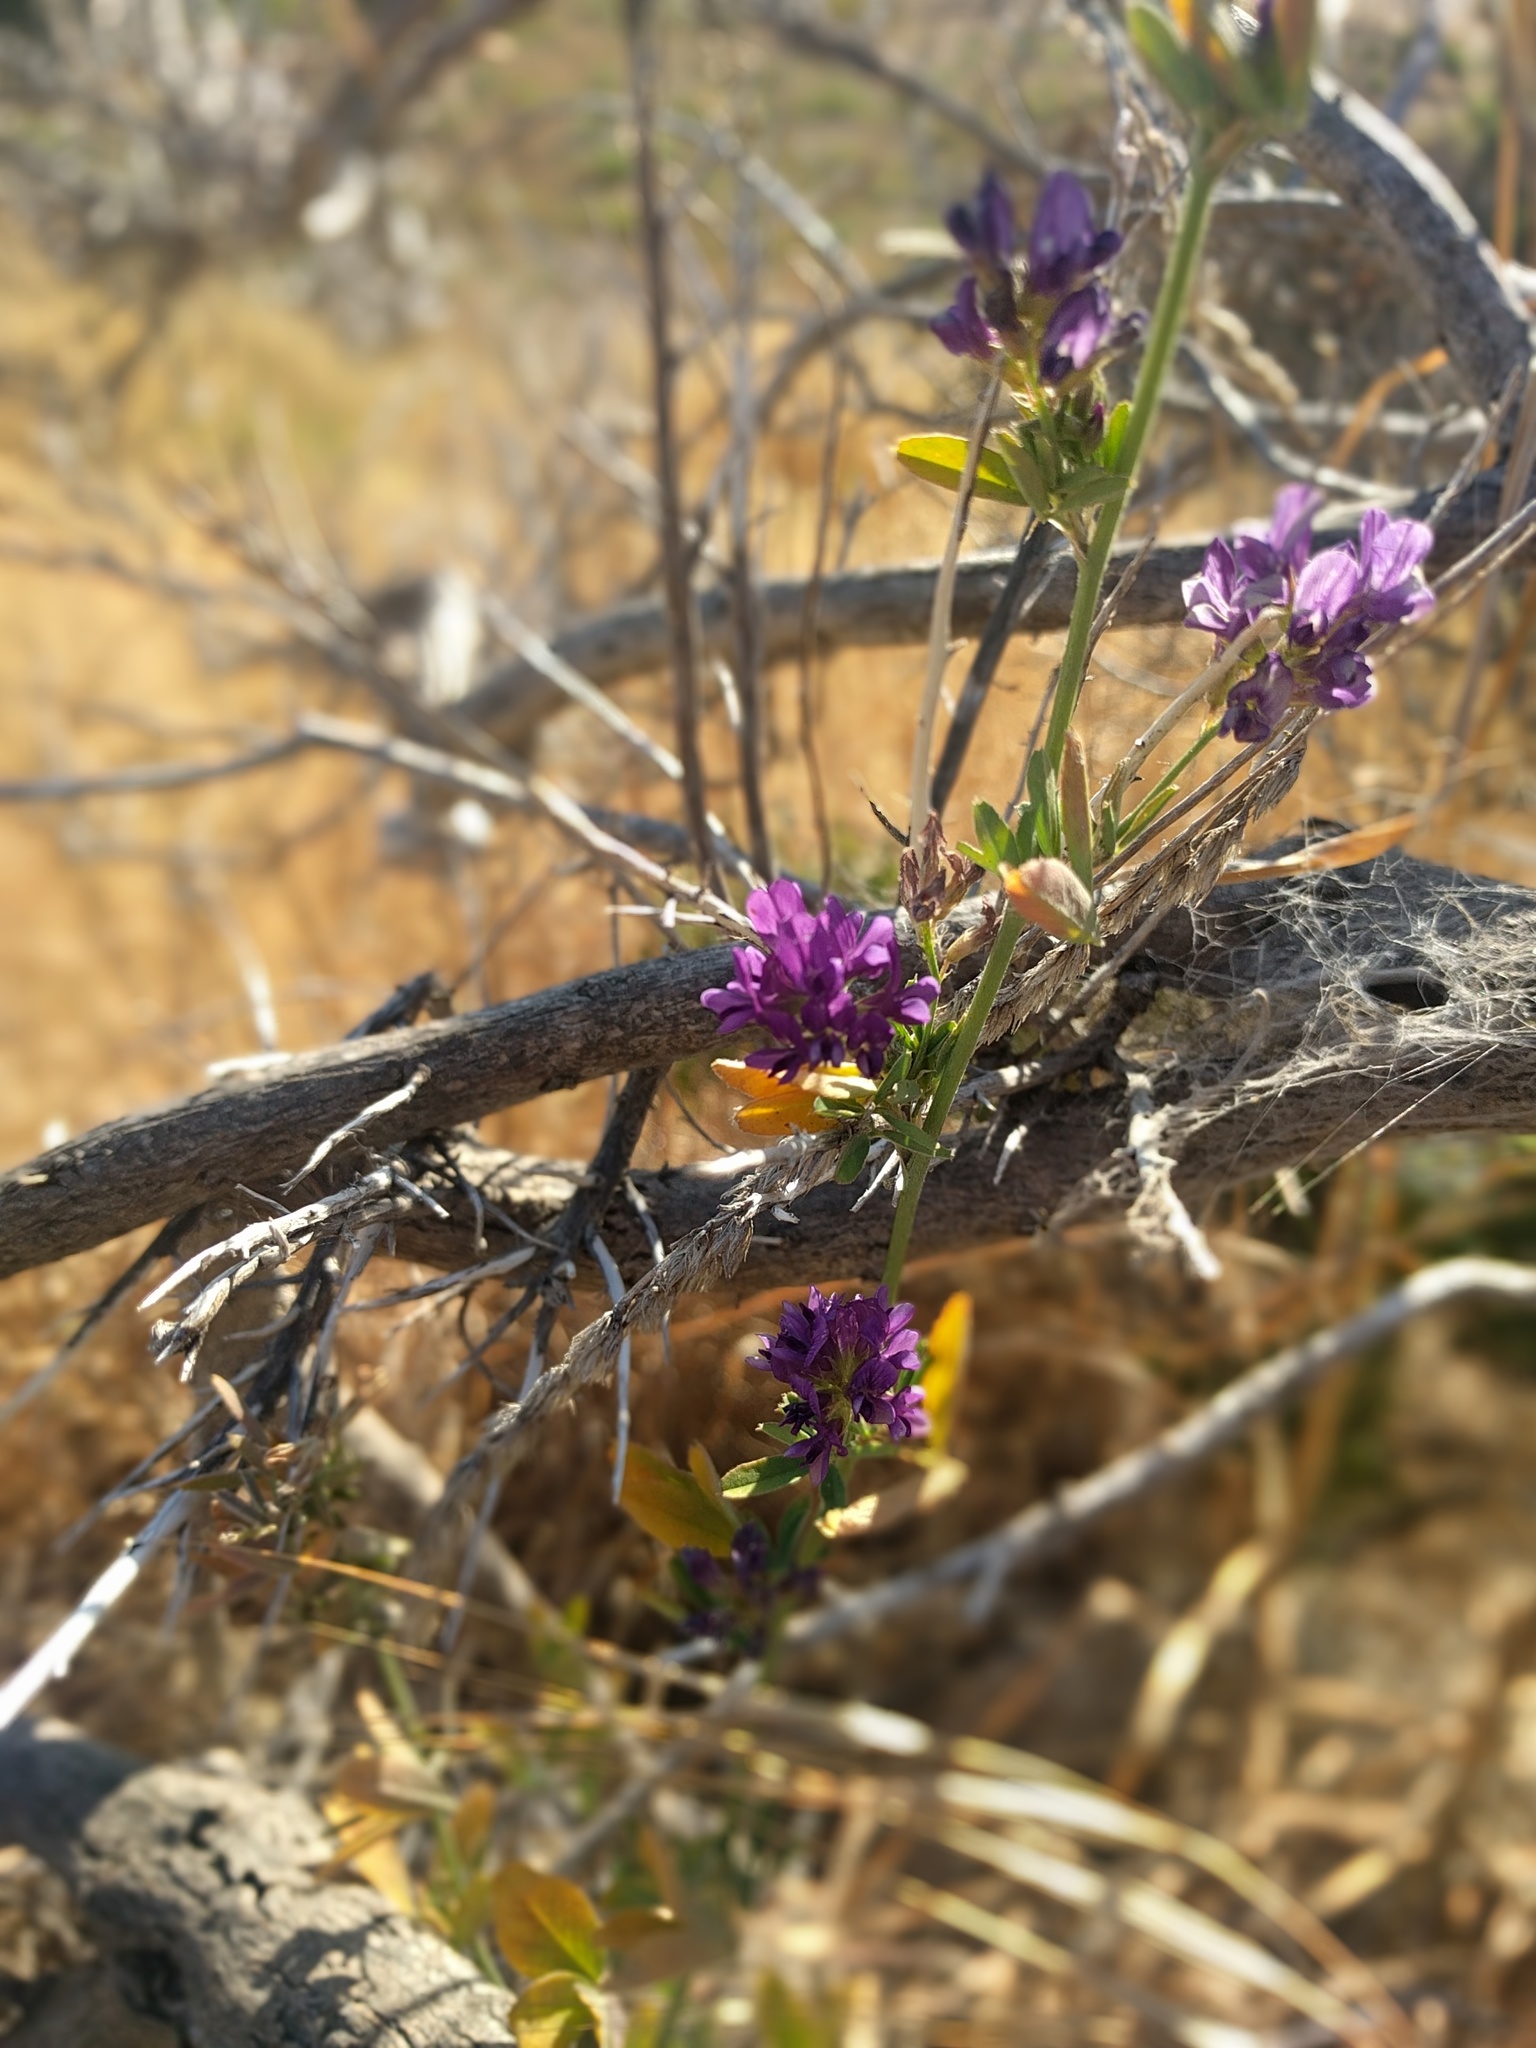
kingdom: Plantae
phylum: Tracheophyta
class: Magnoliopsida
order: Fabales
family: Fabaceae
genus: Medicago
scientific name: Medicago sativa
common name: Alfalfa
